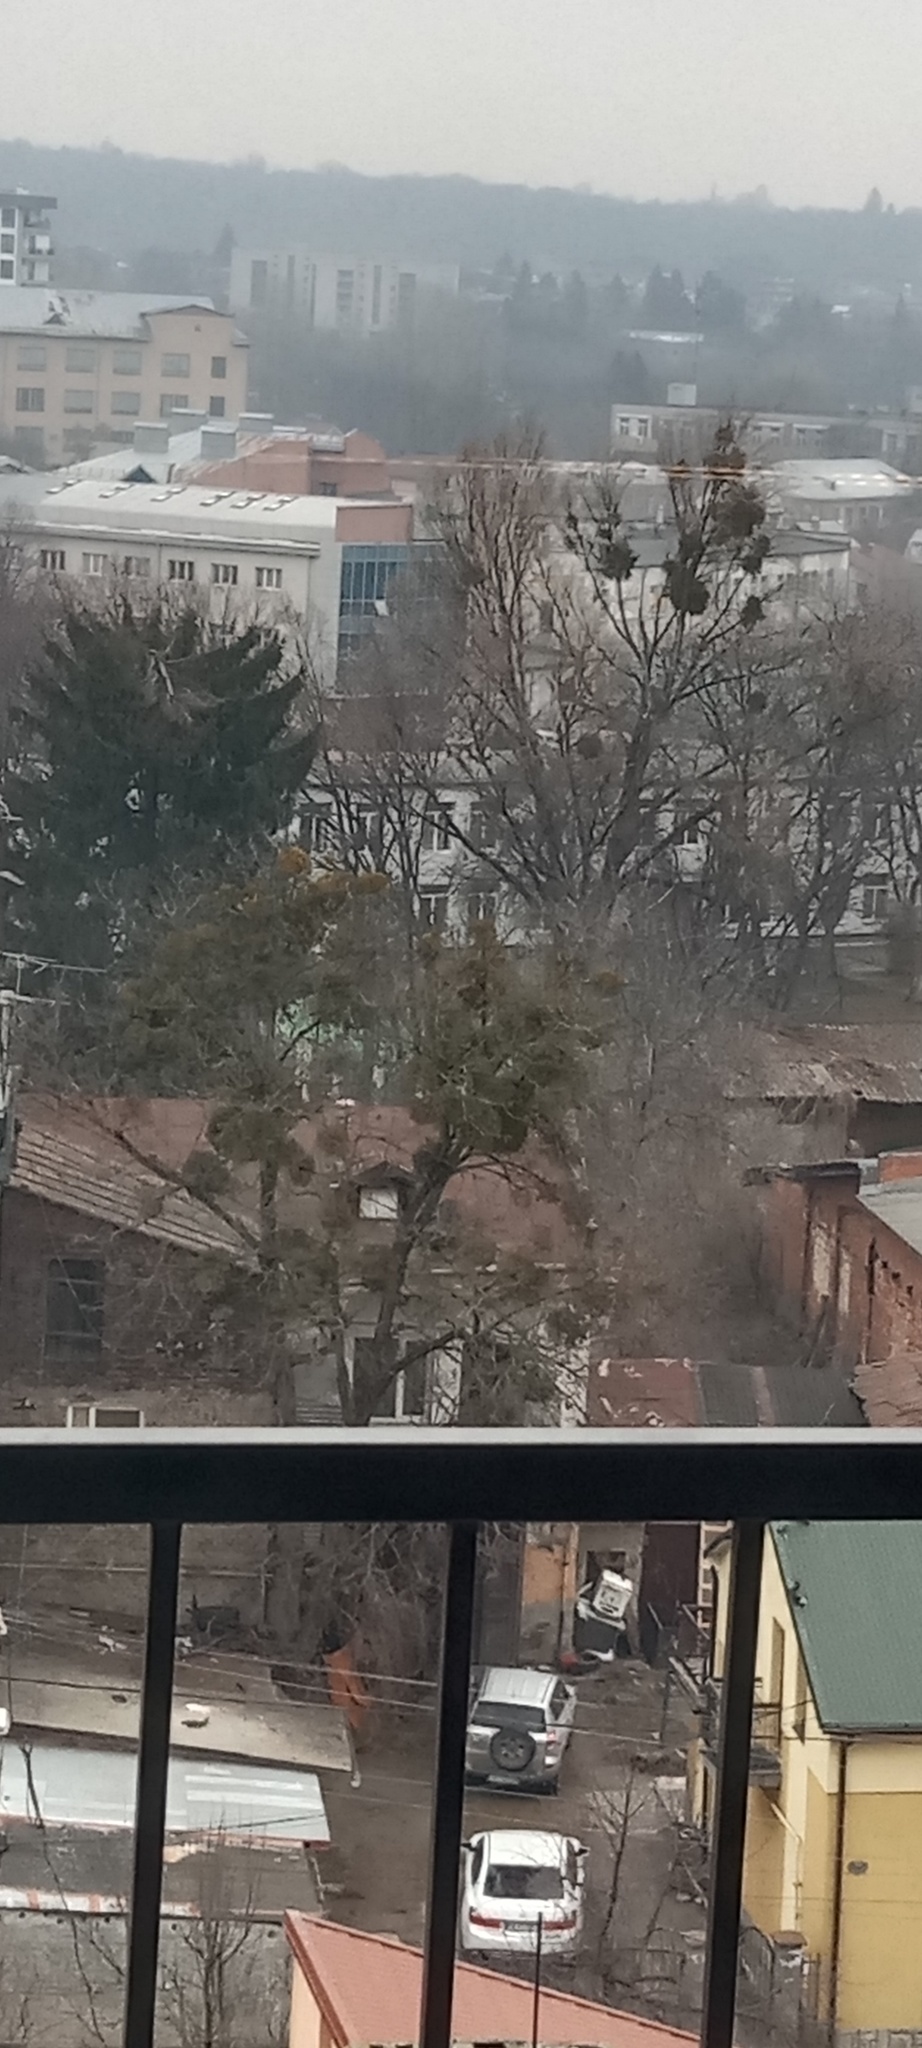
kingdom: Plantae
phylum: Tracheophyta
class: Magnoliopsida
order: Santalales
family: Viscaceae
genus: Viscum
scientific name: Viscum album
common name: Mistletoe
